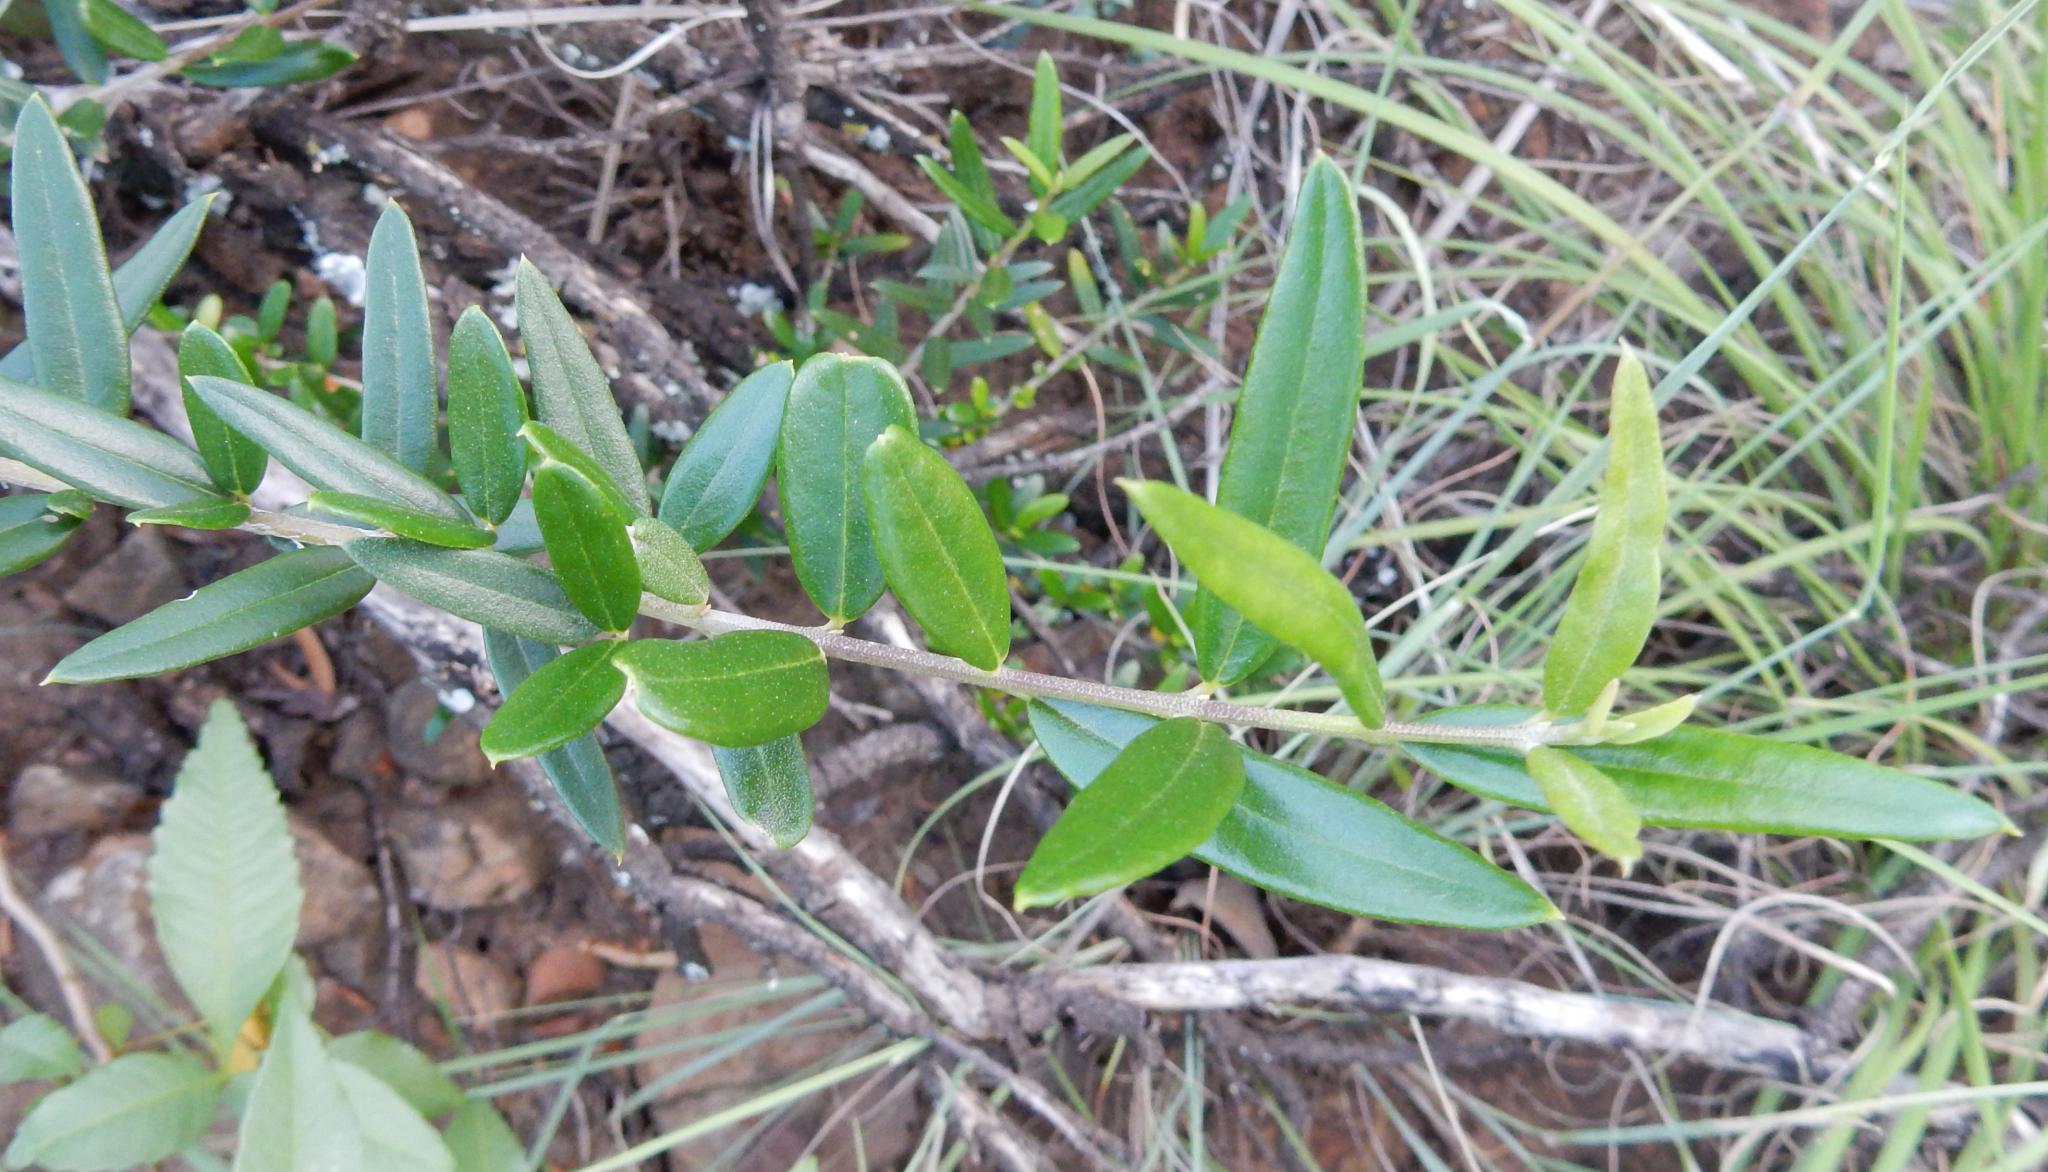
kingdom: Plantae
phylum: Tracheophyta
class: Magnoliopsida
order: Lamiales
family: Oleaceae
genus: Olea
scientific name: Olea europaea
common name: Olive
